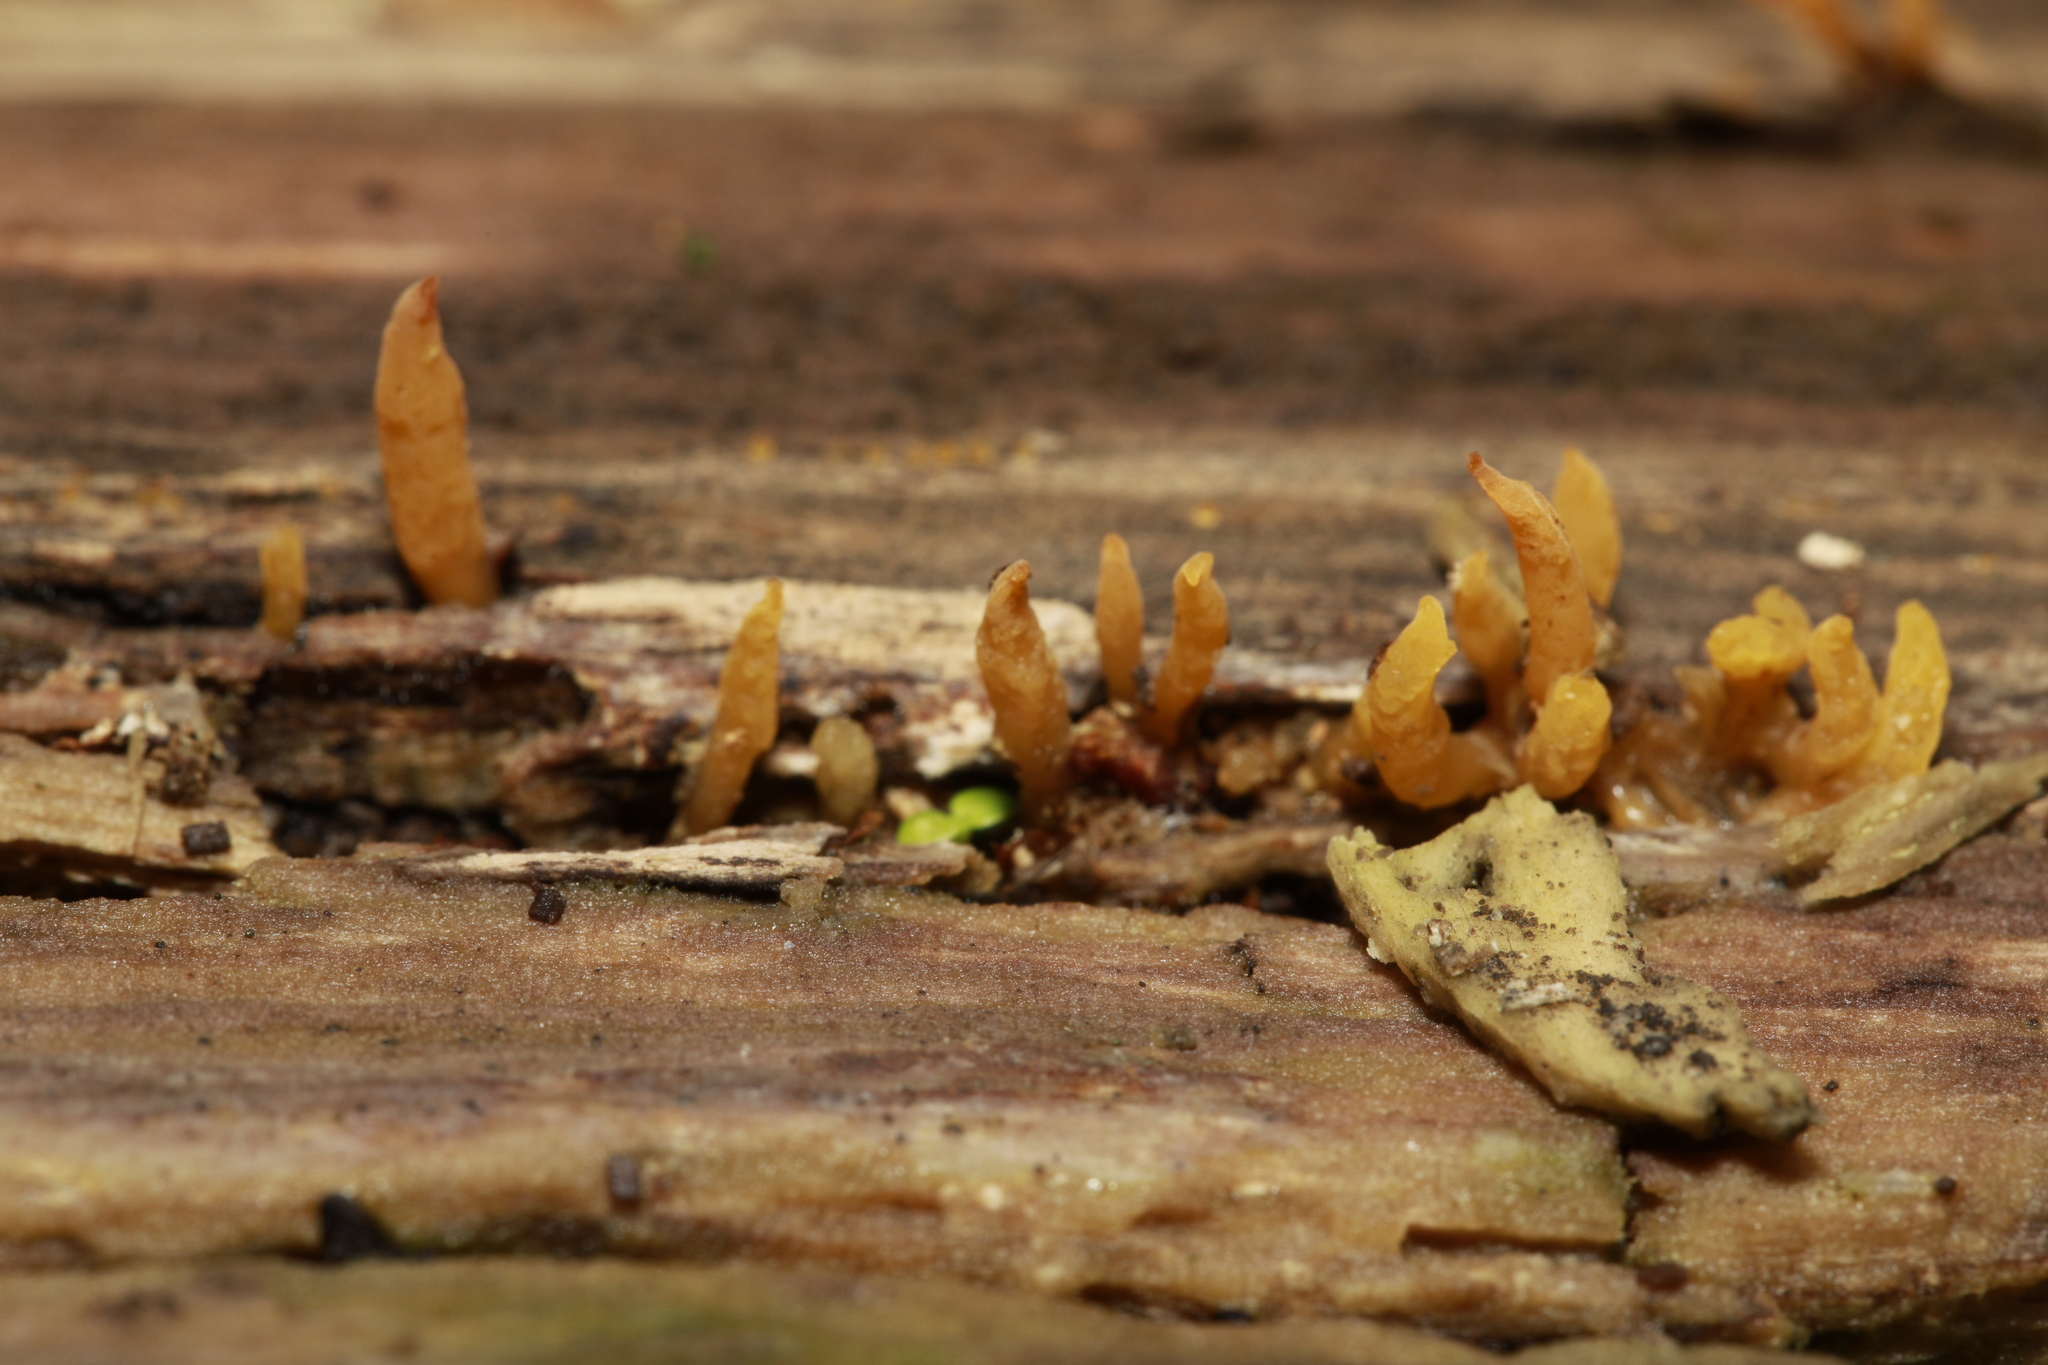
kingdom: Fungi
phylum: Basidiomycota
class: Dacrymycetes
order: Dacrymycetales
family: Dacrymycetaceae
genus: Calocera
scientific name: Calocera cornea
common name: Small stagshorn
